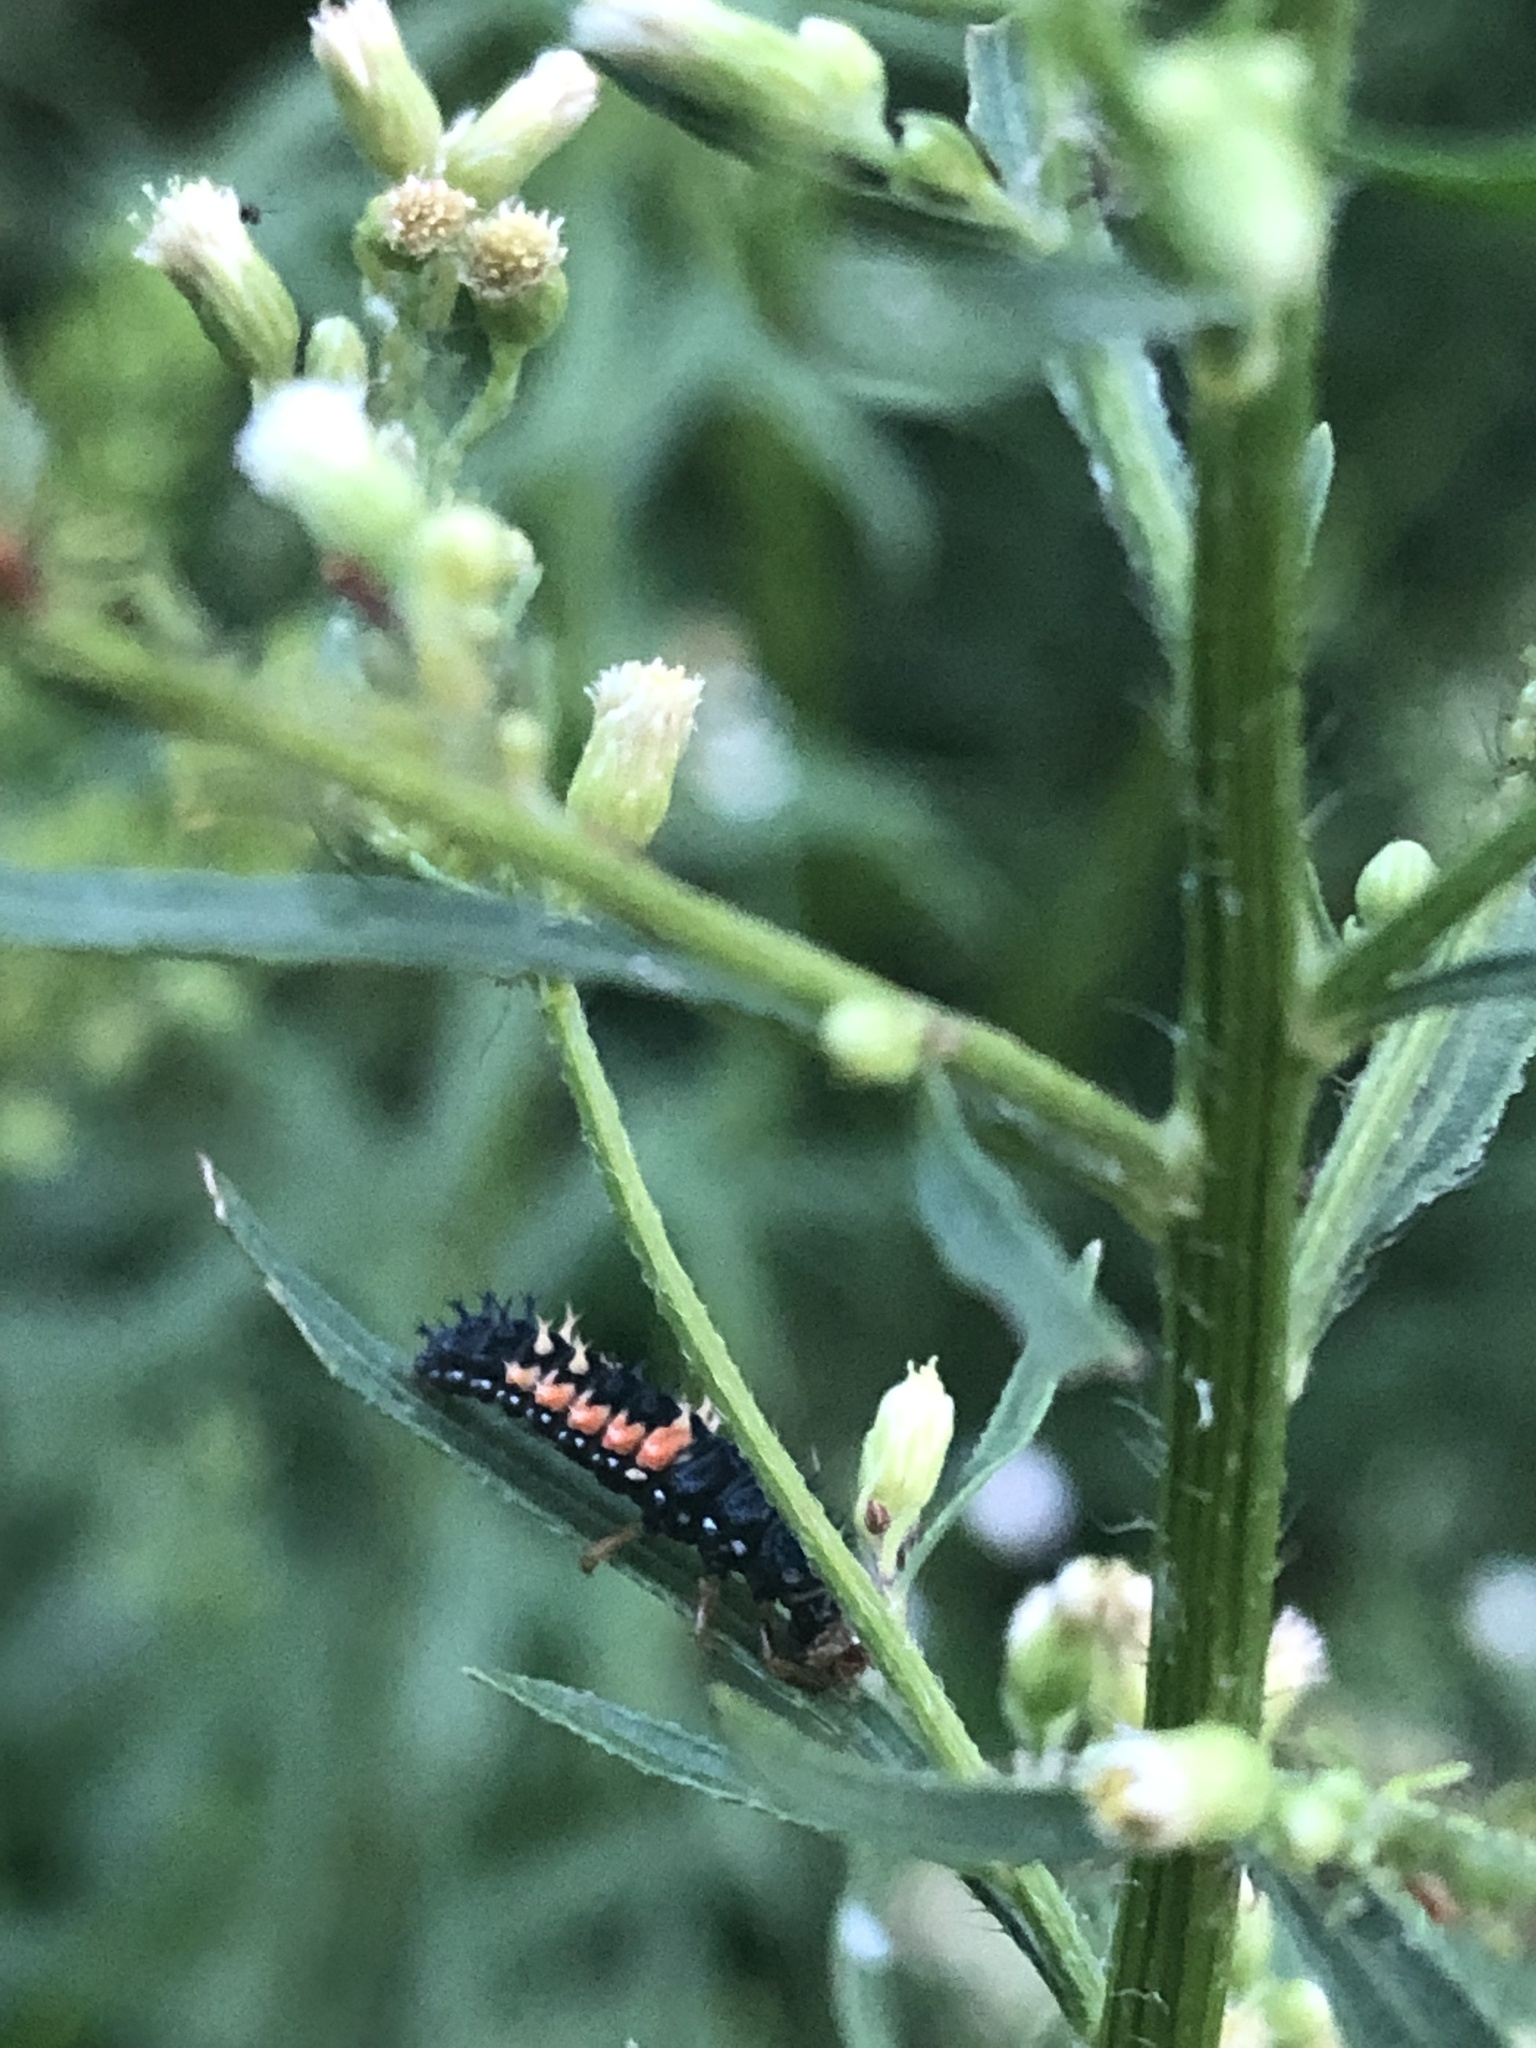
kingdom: Animalia
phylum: Arthropoda
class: Insecta
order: Coleoptera
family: Coccinellidae
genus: Harmonia
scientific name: Harmonia axyridis
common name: Harlequin ladybird
